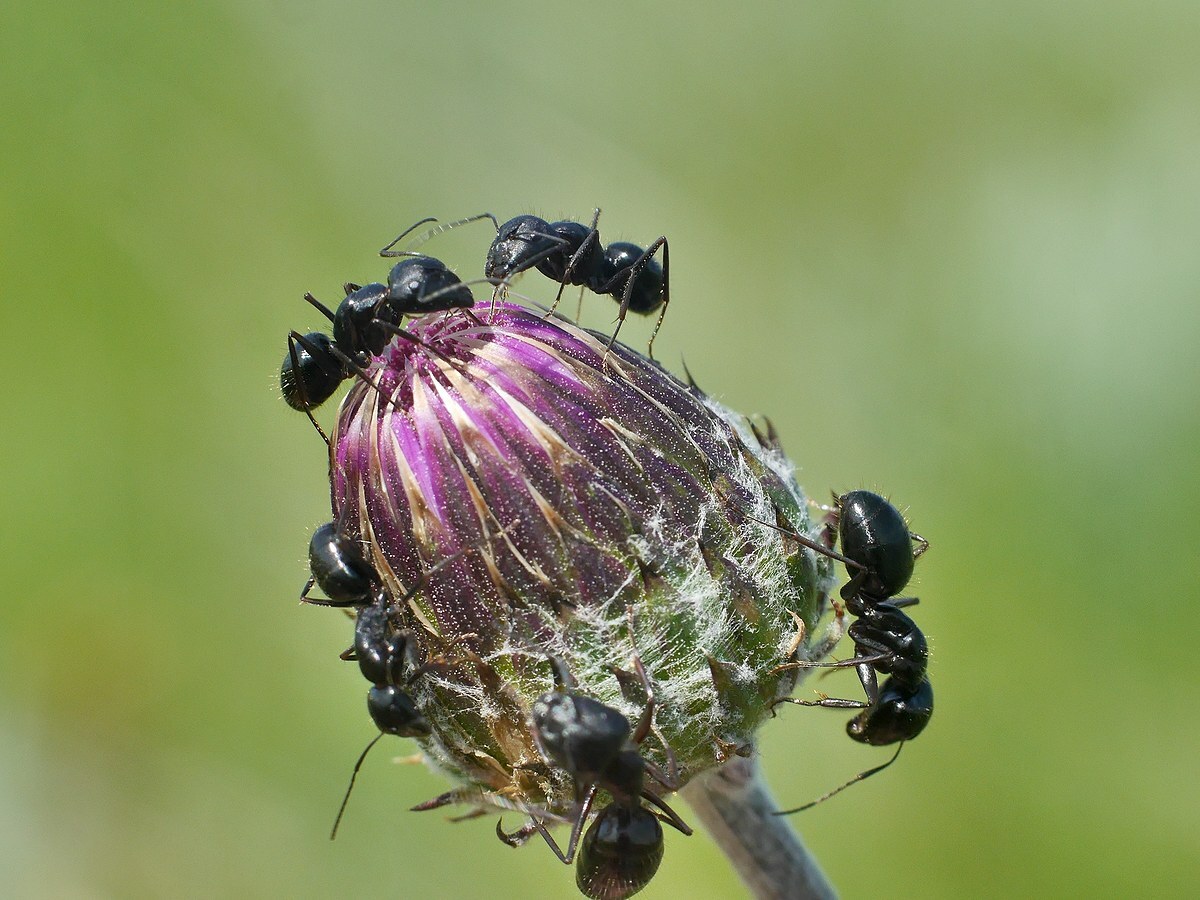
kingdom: Animalia
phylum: Arthropoda
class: Insecta
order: Hymenoptera
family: Formicidae
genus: Camponotus
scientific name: Camponotus aethiops
